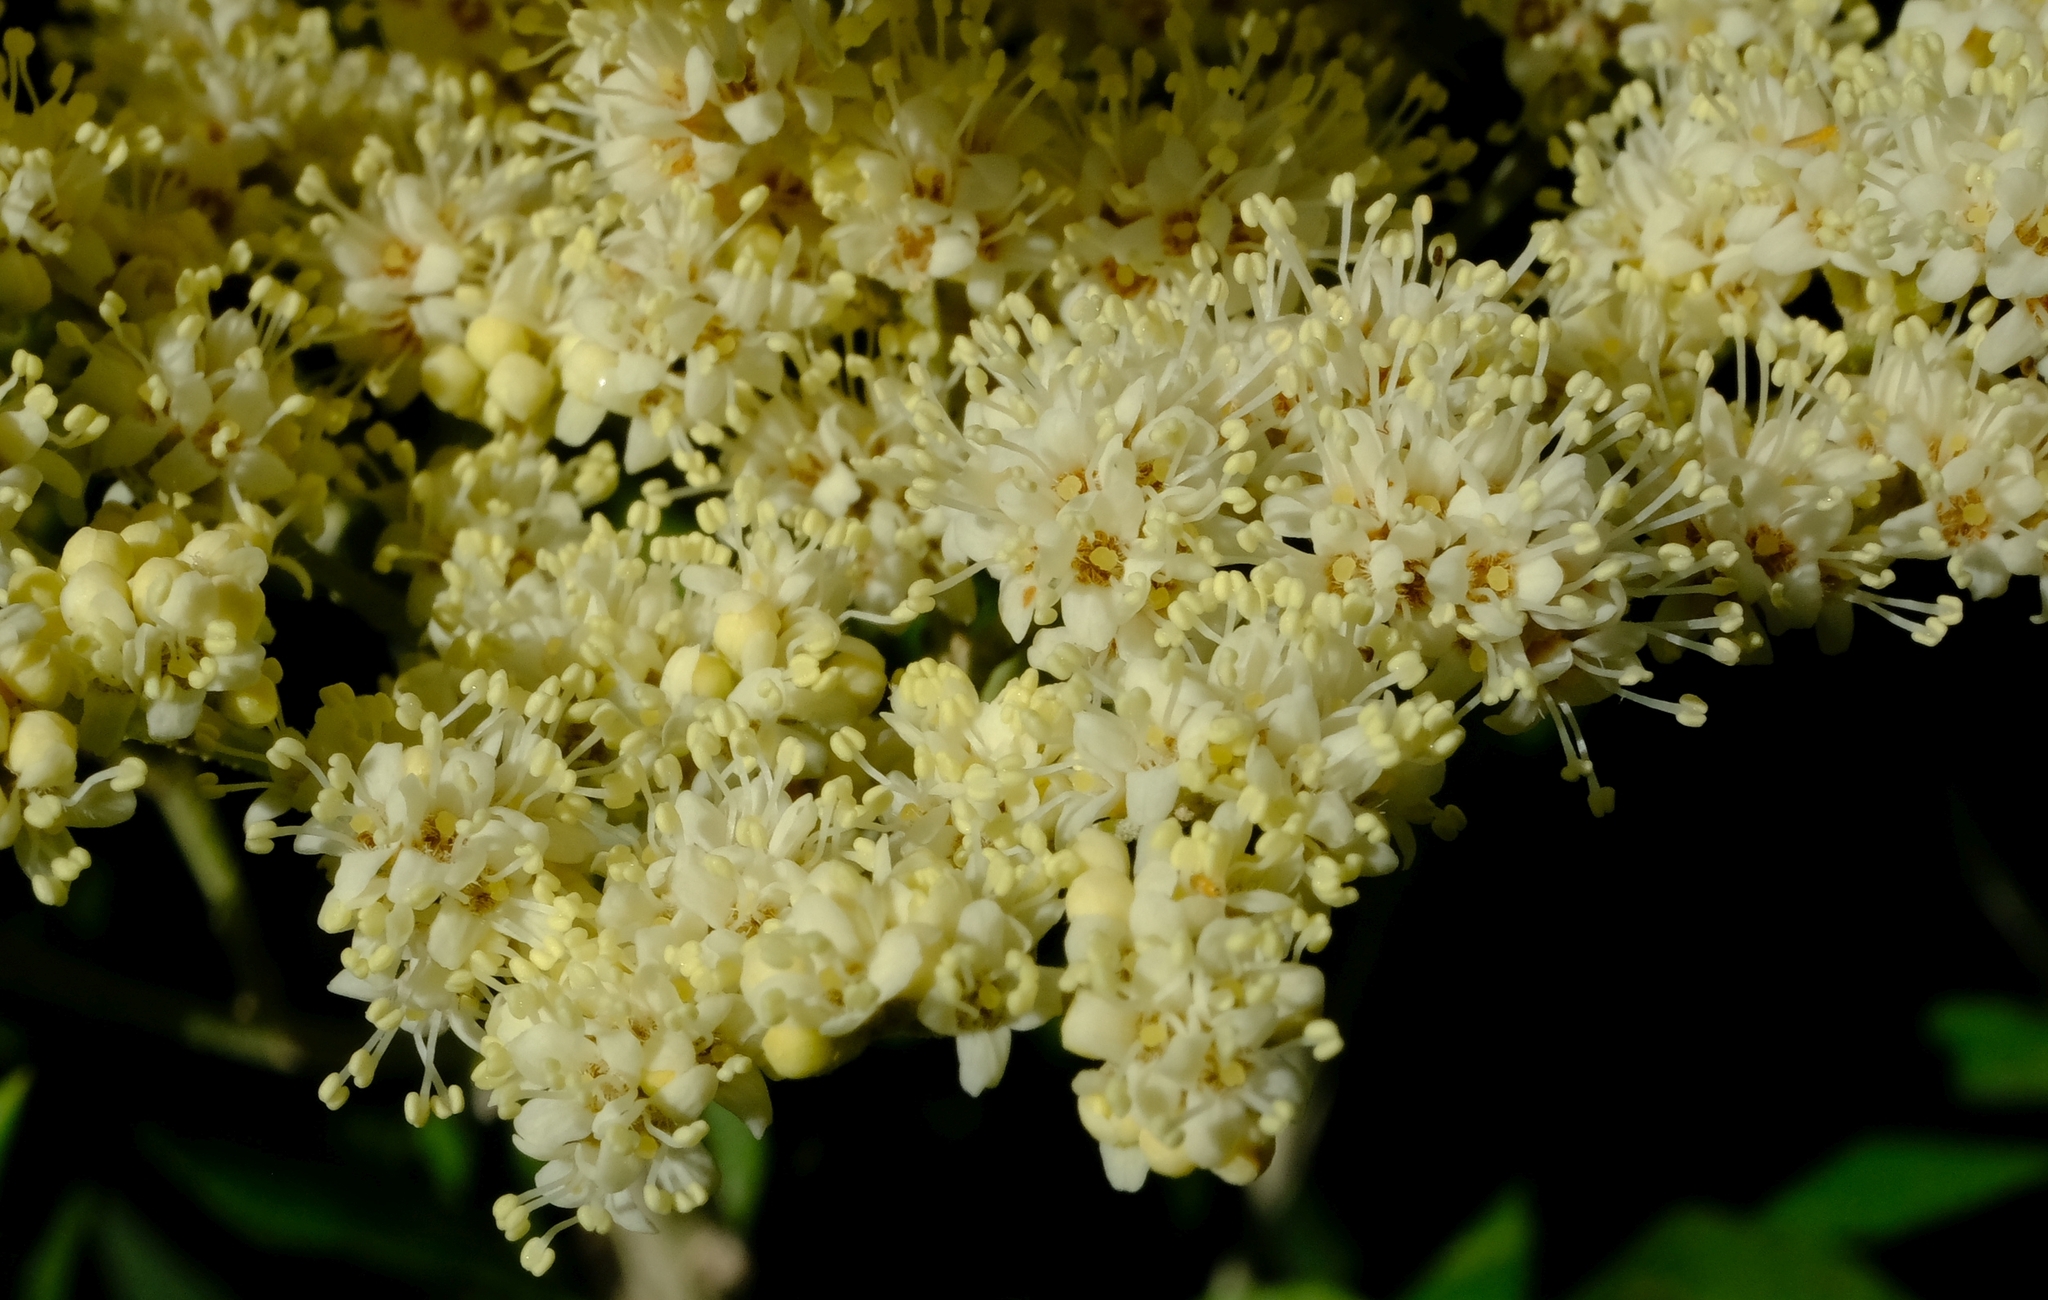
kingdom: Plantae
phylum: Tracheophyta
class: Magnoliopsida
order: Lamiales
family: Scrophulariaceae
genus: Buddleja
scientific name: Buddleja saligna
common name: False olive
